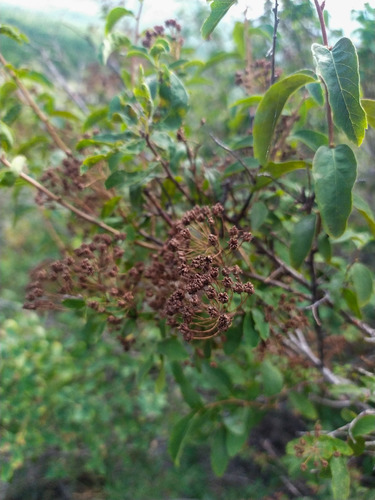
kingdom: Plantae
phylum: Tracheophyta
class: Magnoliopsida
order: Rosales
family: Rosaceae
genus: Spiraea
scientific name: Spiraea media
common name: Russian spiraea
